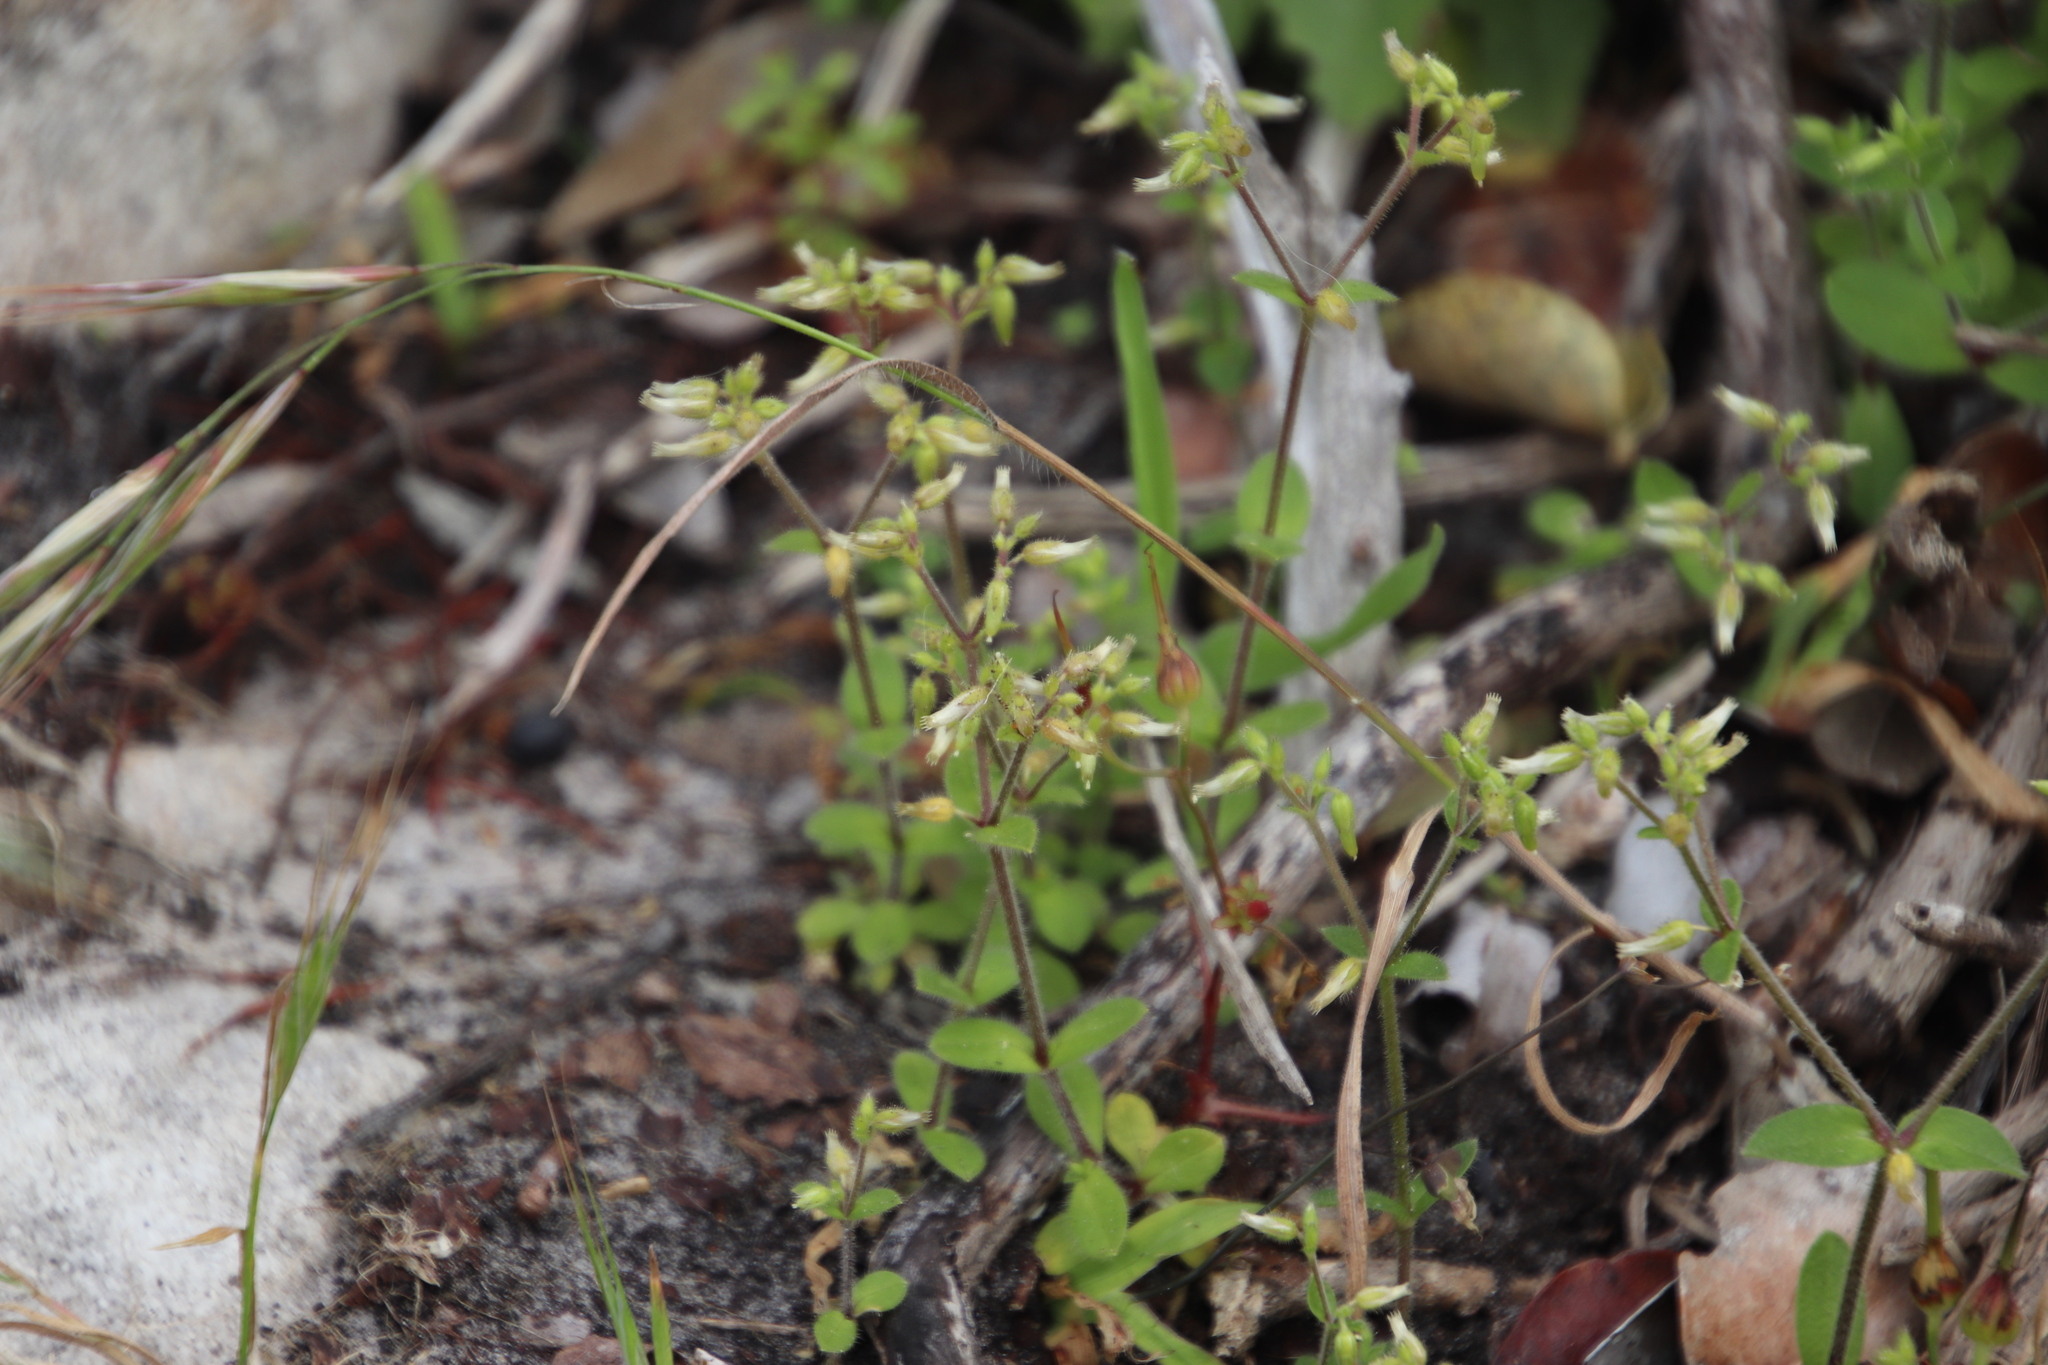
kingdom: Plantae
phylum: Tracheophyta
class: Magnoliopsida
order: Caryophyllales
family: Caryophyllaceae
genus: Cerastium
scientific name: Cerastium capense
